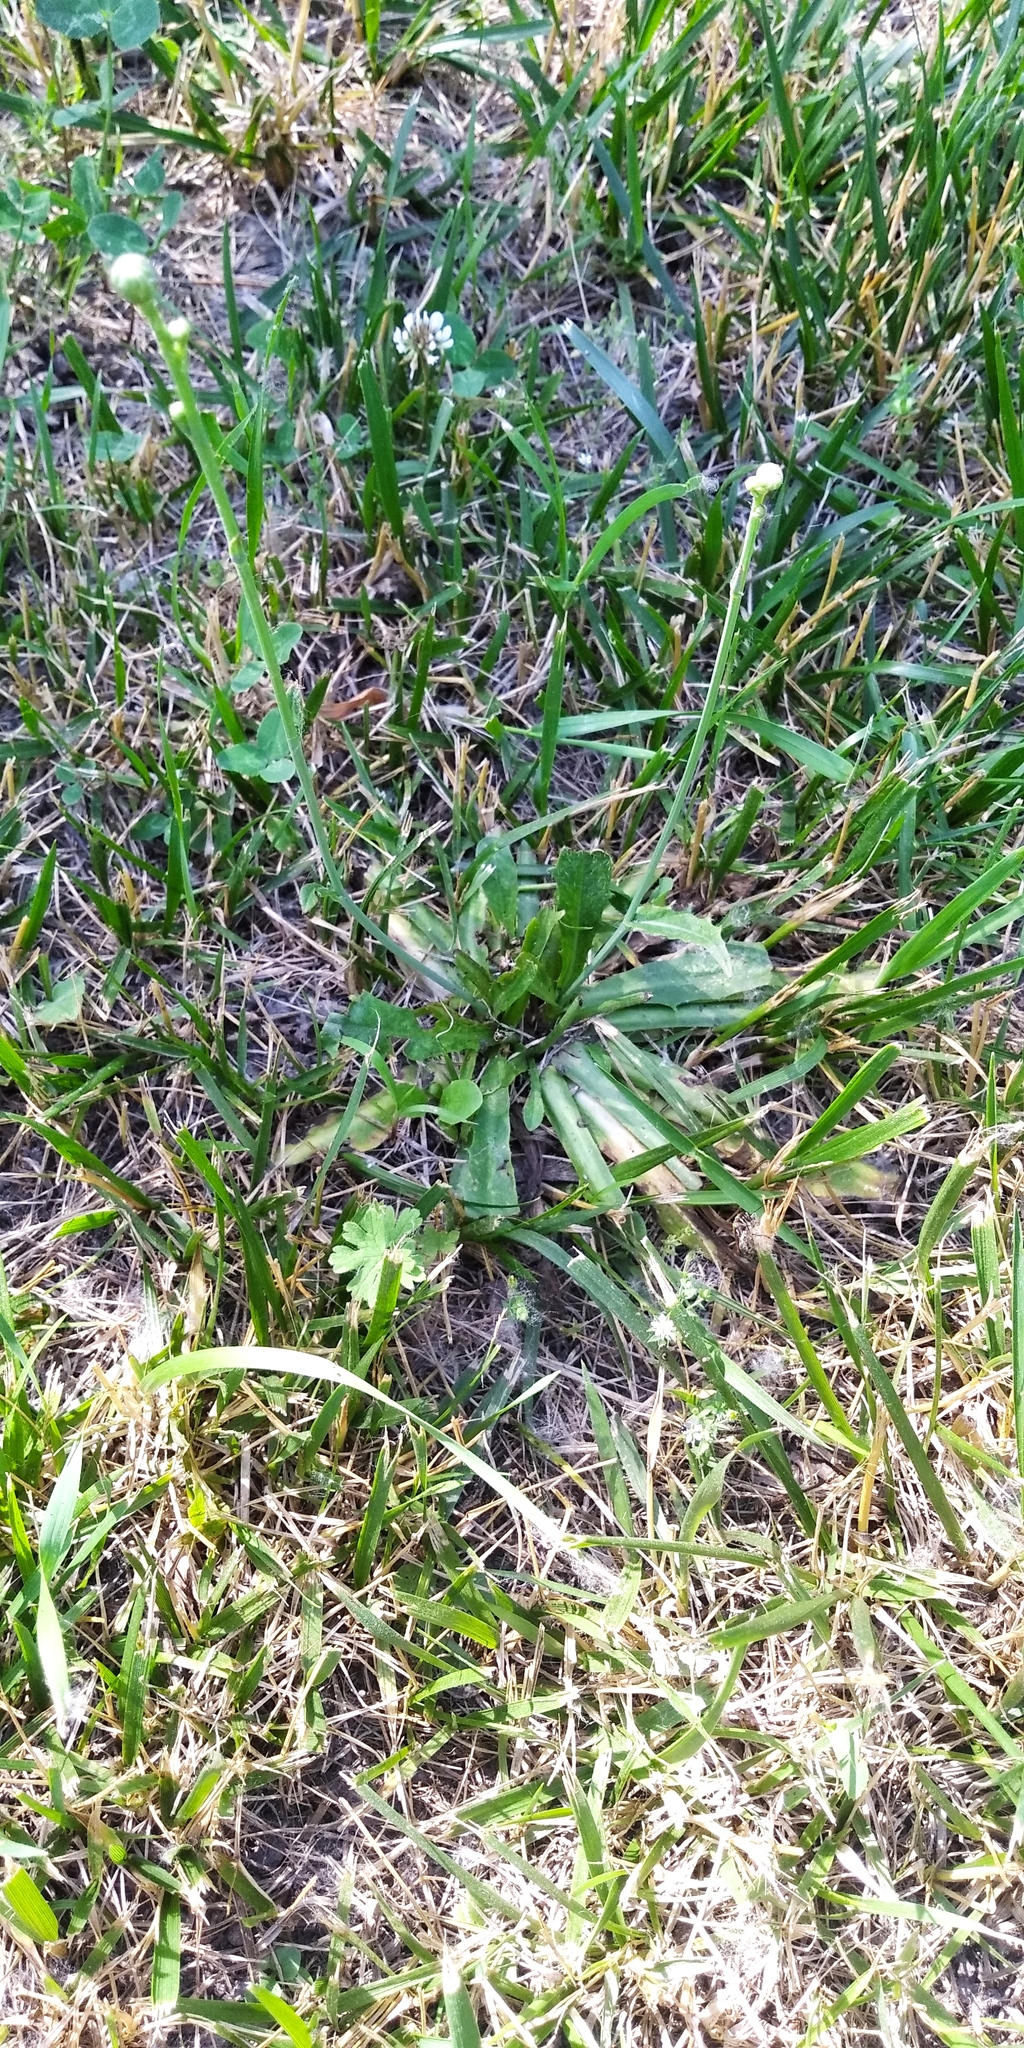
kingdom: Plantae
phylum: Tracheophyta
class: Magnoliopsida
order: Asterales
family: Asteraceae
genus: Hypochaeris
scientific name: Hypochaeris radicata
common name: Flatweed
